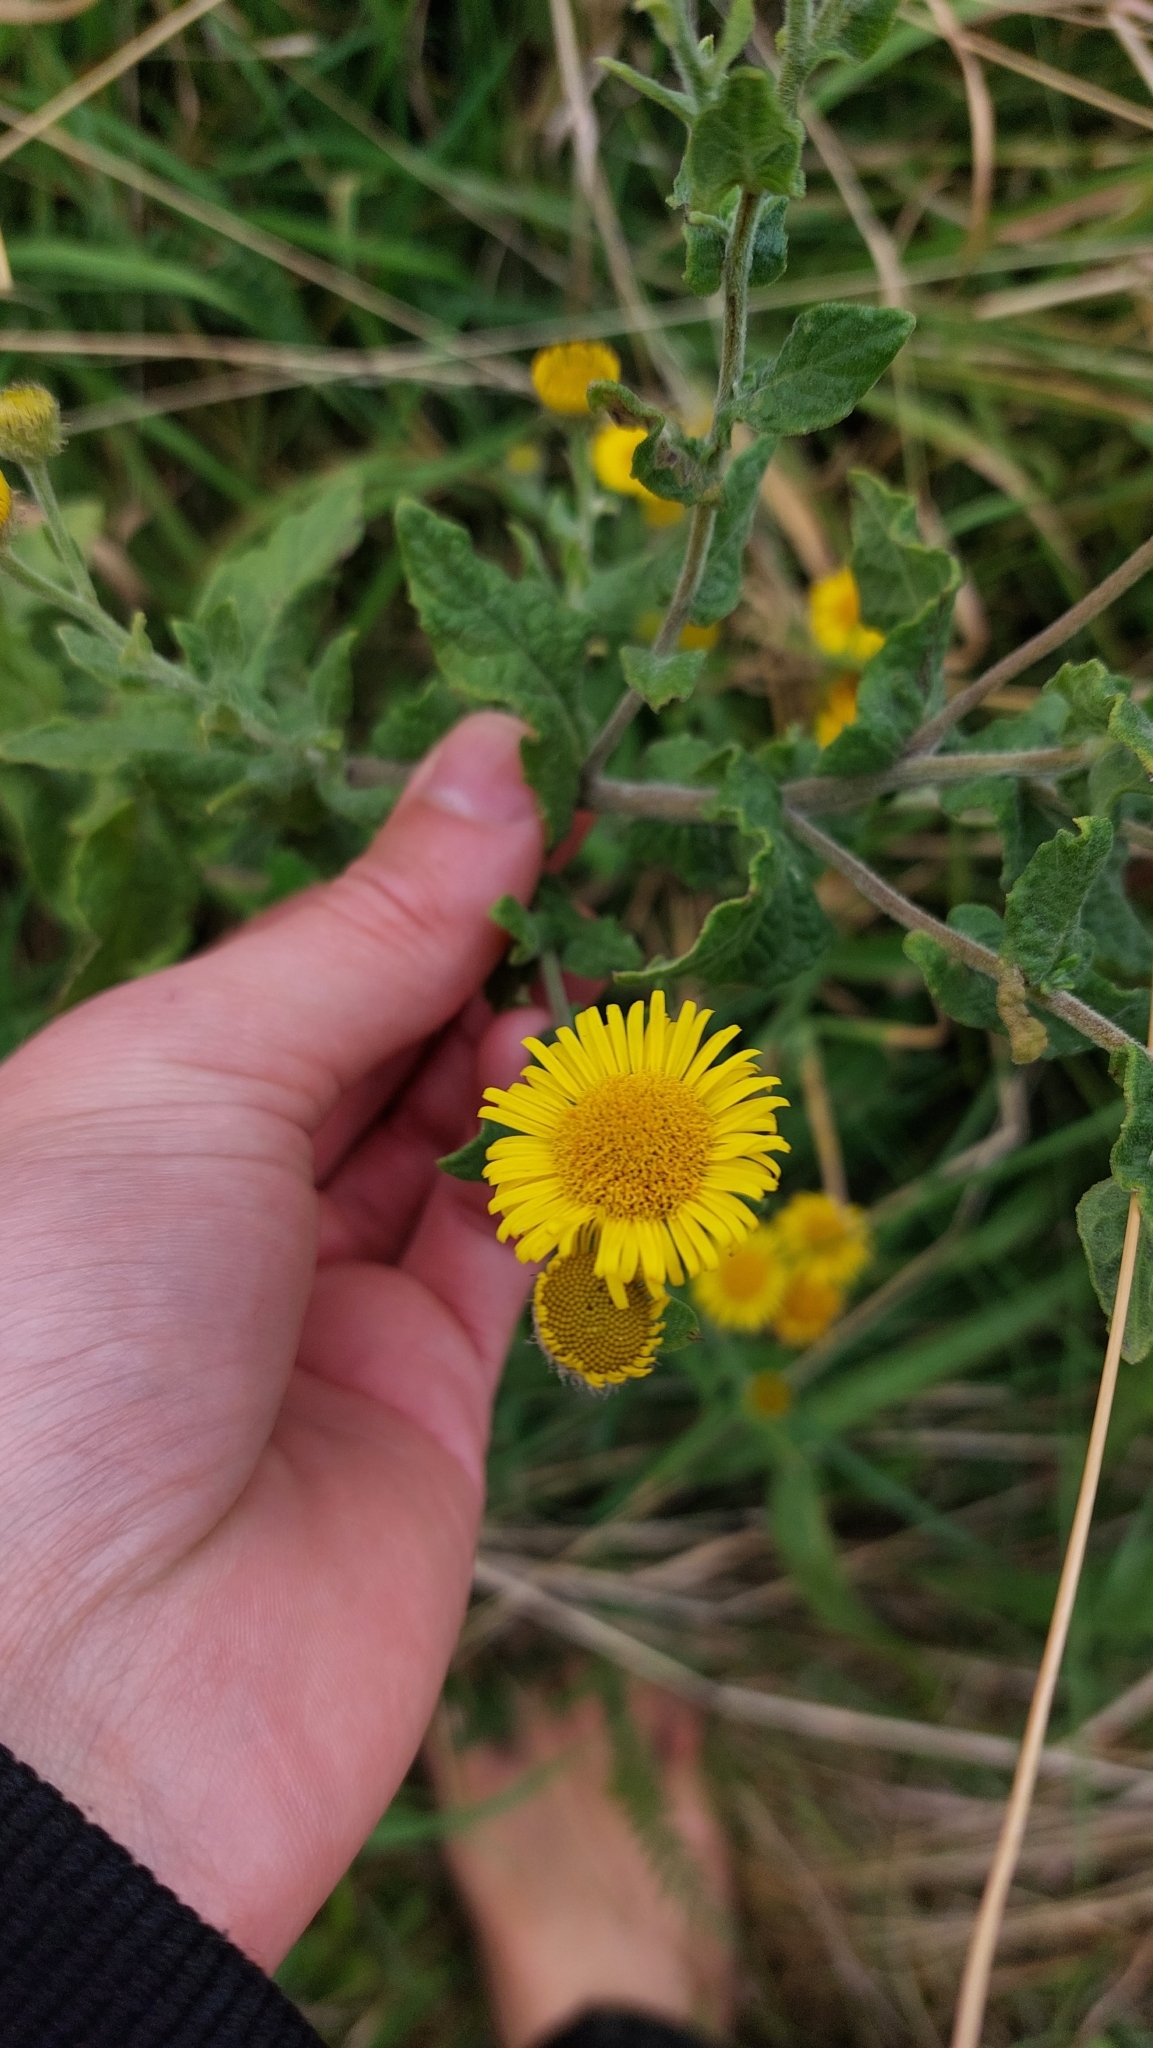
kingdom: Plantae
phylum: Tracheophyta
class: Magnoliopsida
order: Asterales
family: Asteraceae
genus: Pulicaria
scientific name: Pulicaria dysenterica
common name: Common fleabane
